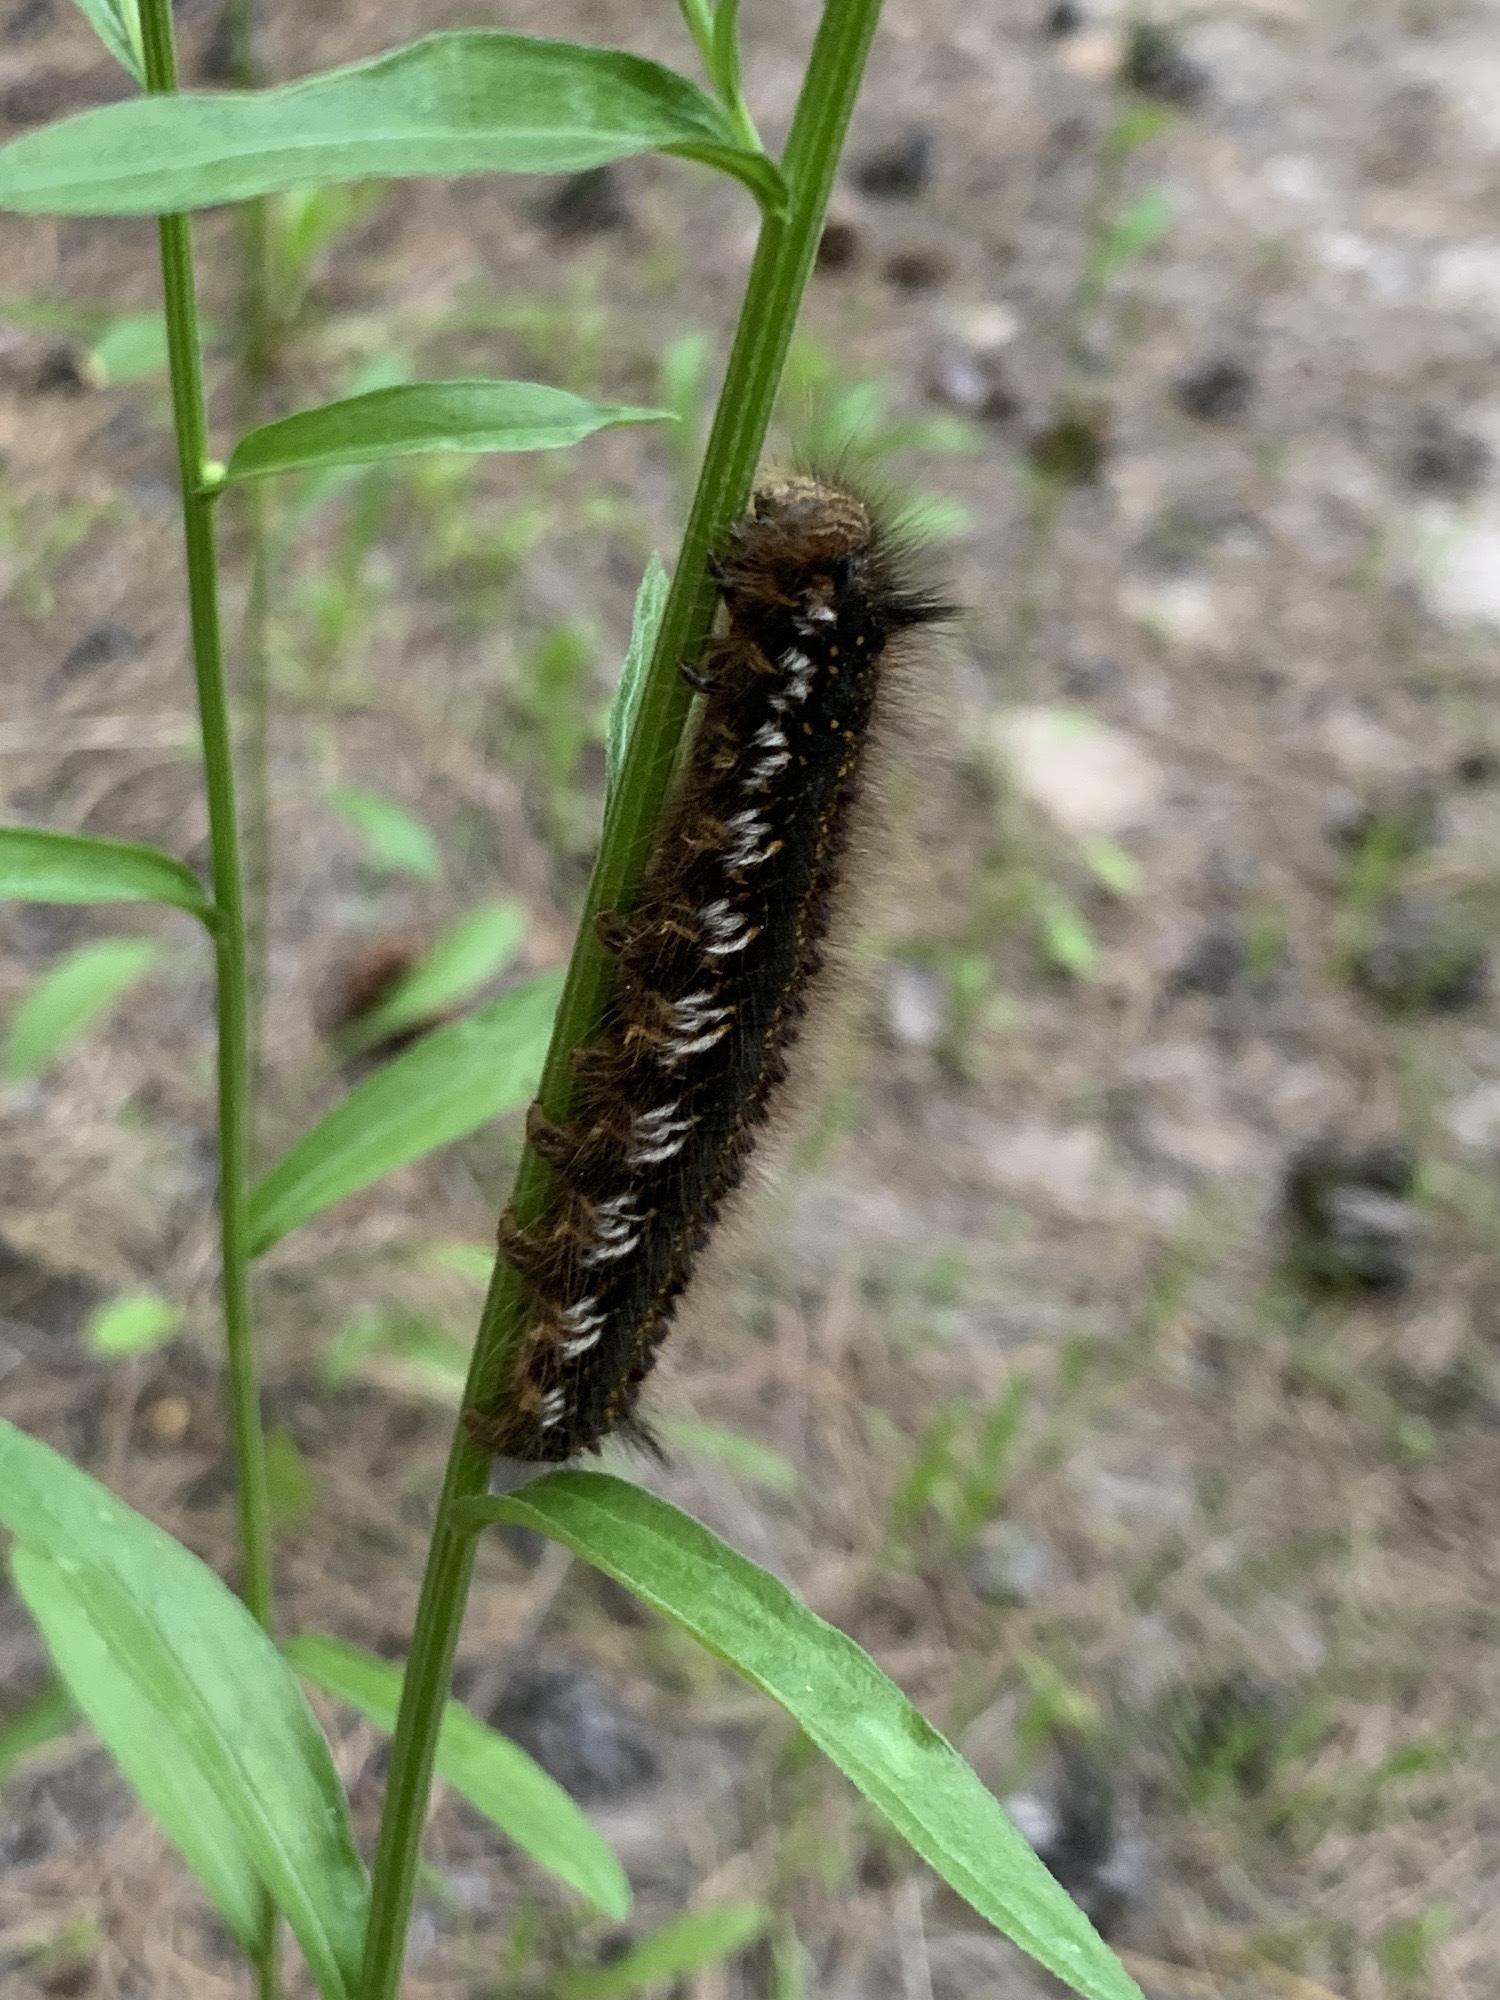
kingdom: Animalia
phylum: Arthropoda
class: Insecta
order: Lepidoptera
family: Lasiocampidae
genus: Euthrix
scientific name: Euthrix potatoria
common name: Drinker
